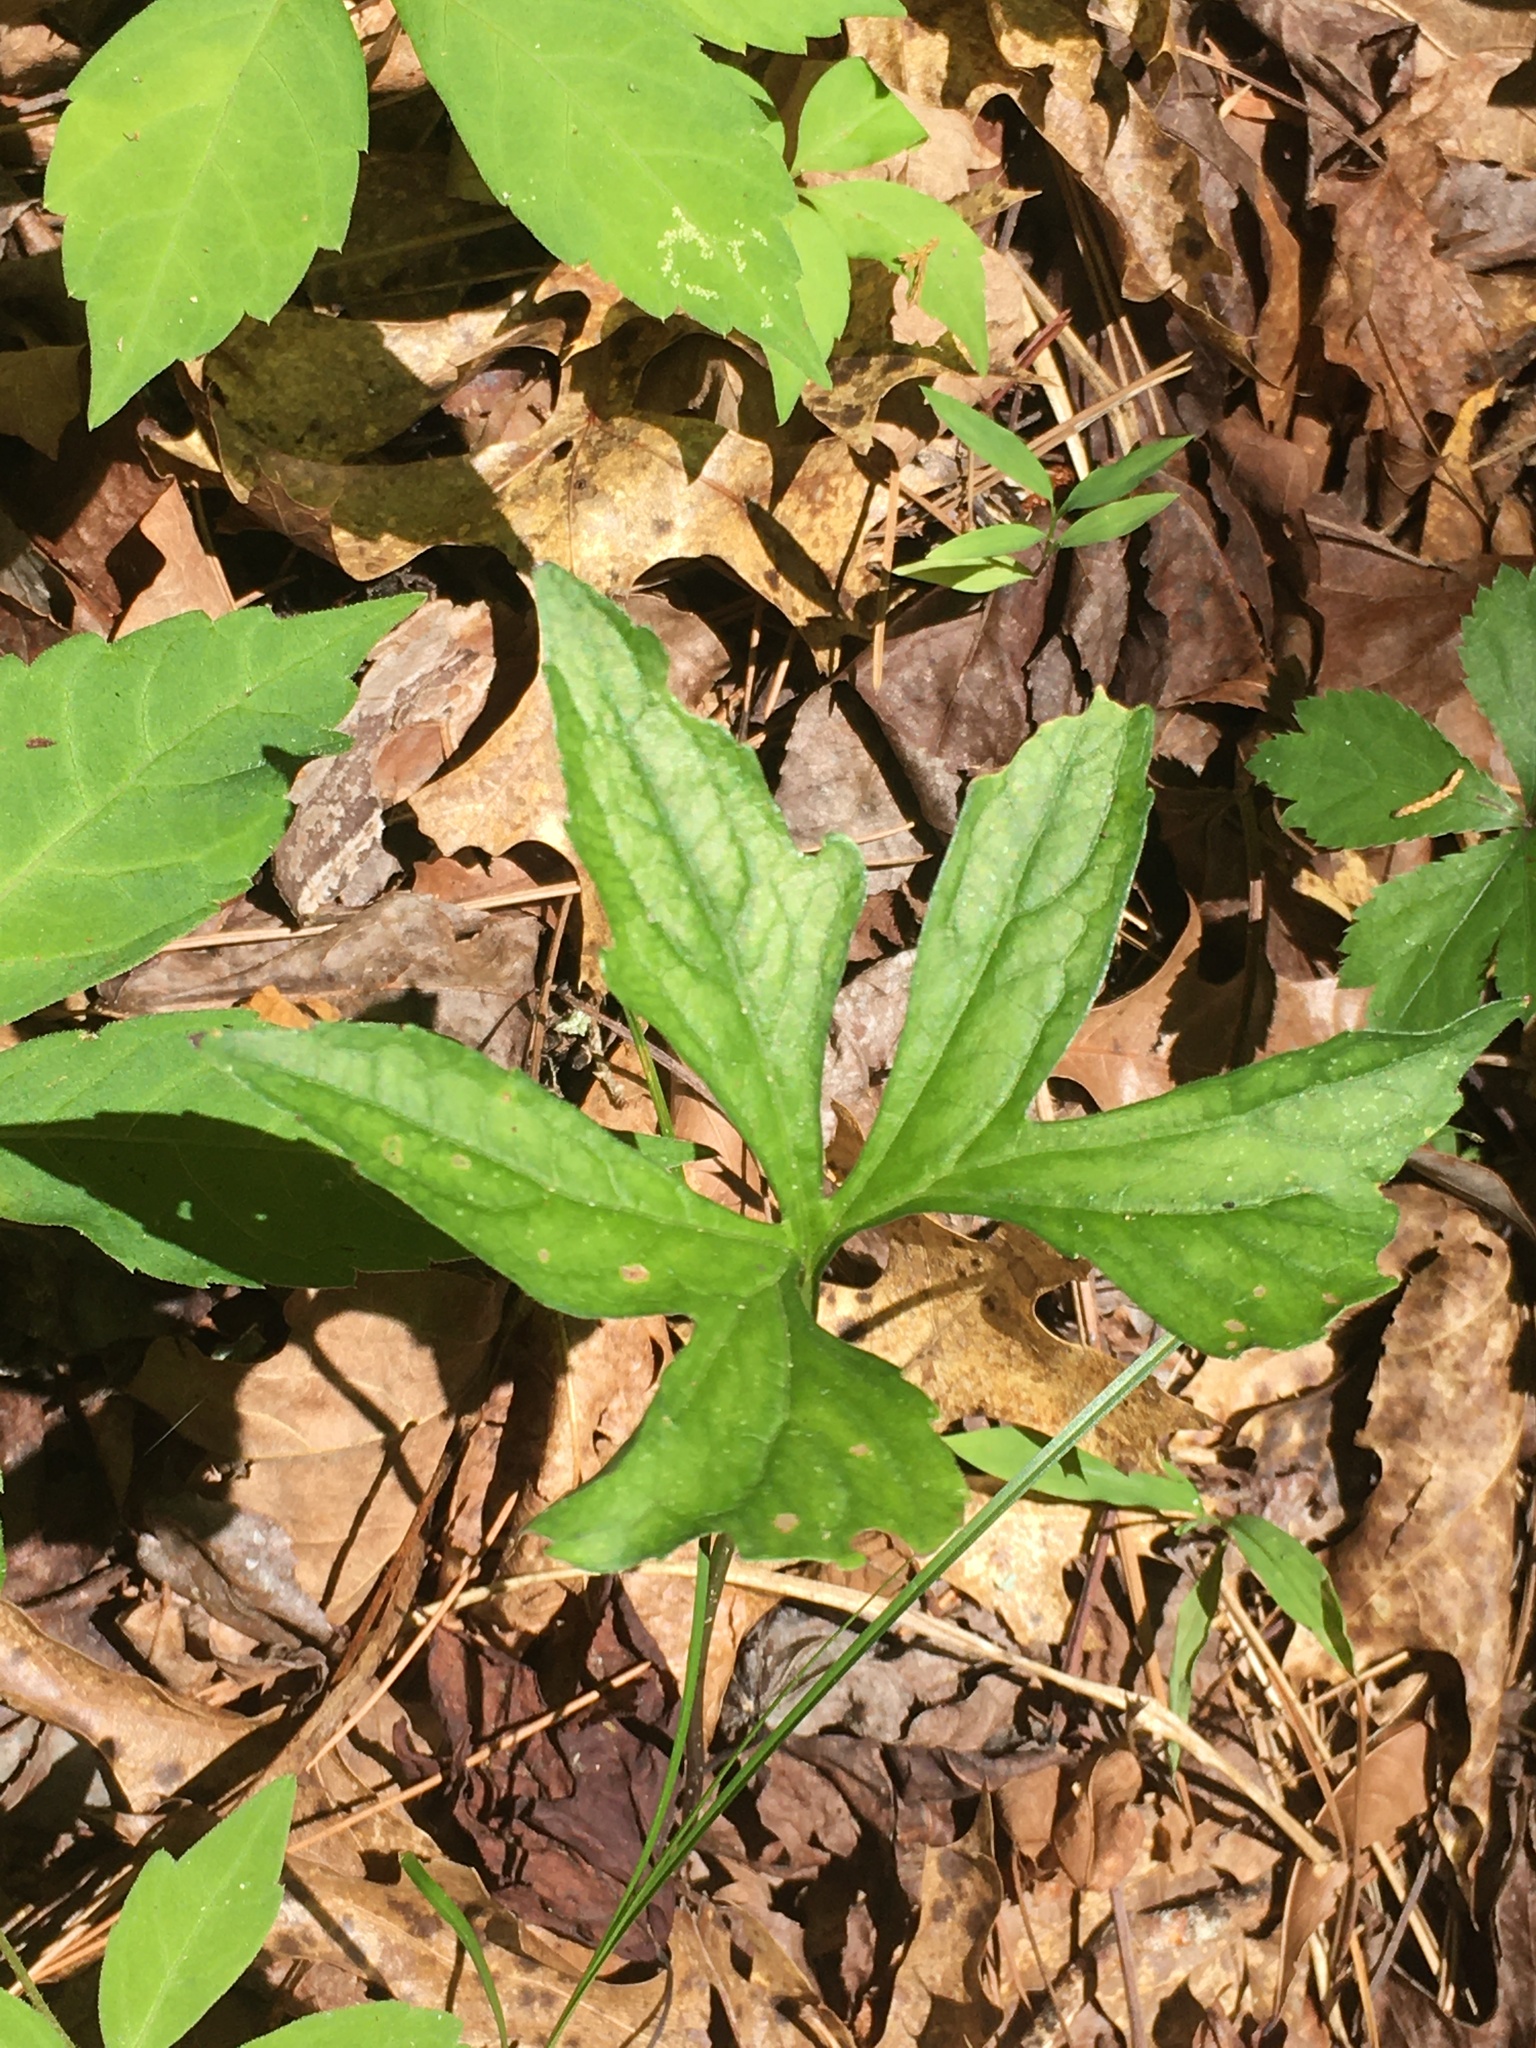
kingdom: Plantae
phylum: Tracheophyta
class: Magnoliopsida
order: Malpighiales
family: Violaceae
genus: Viola
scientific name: Viola palmata
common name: Early blue violet
